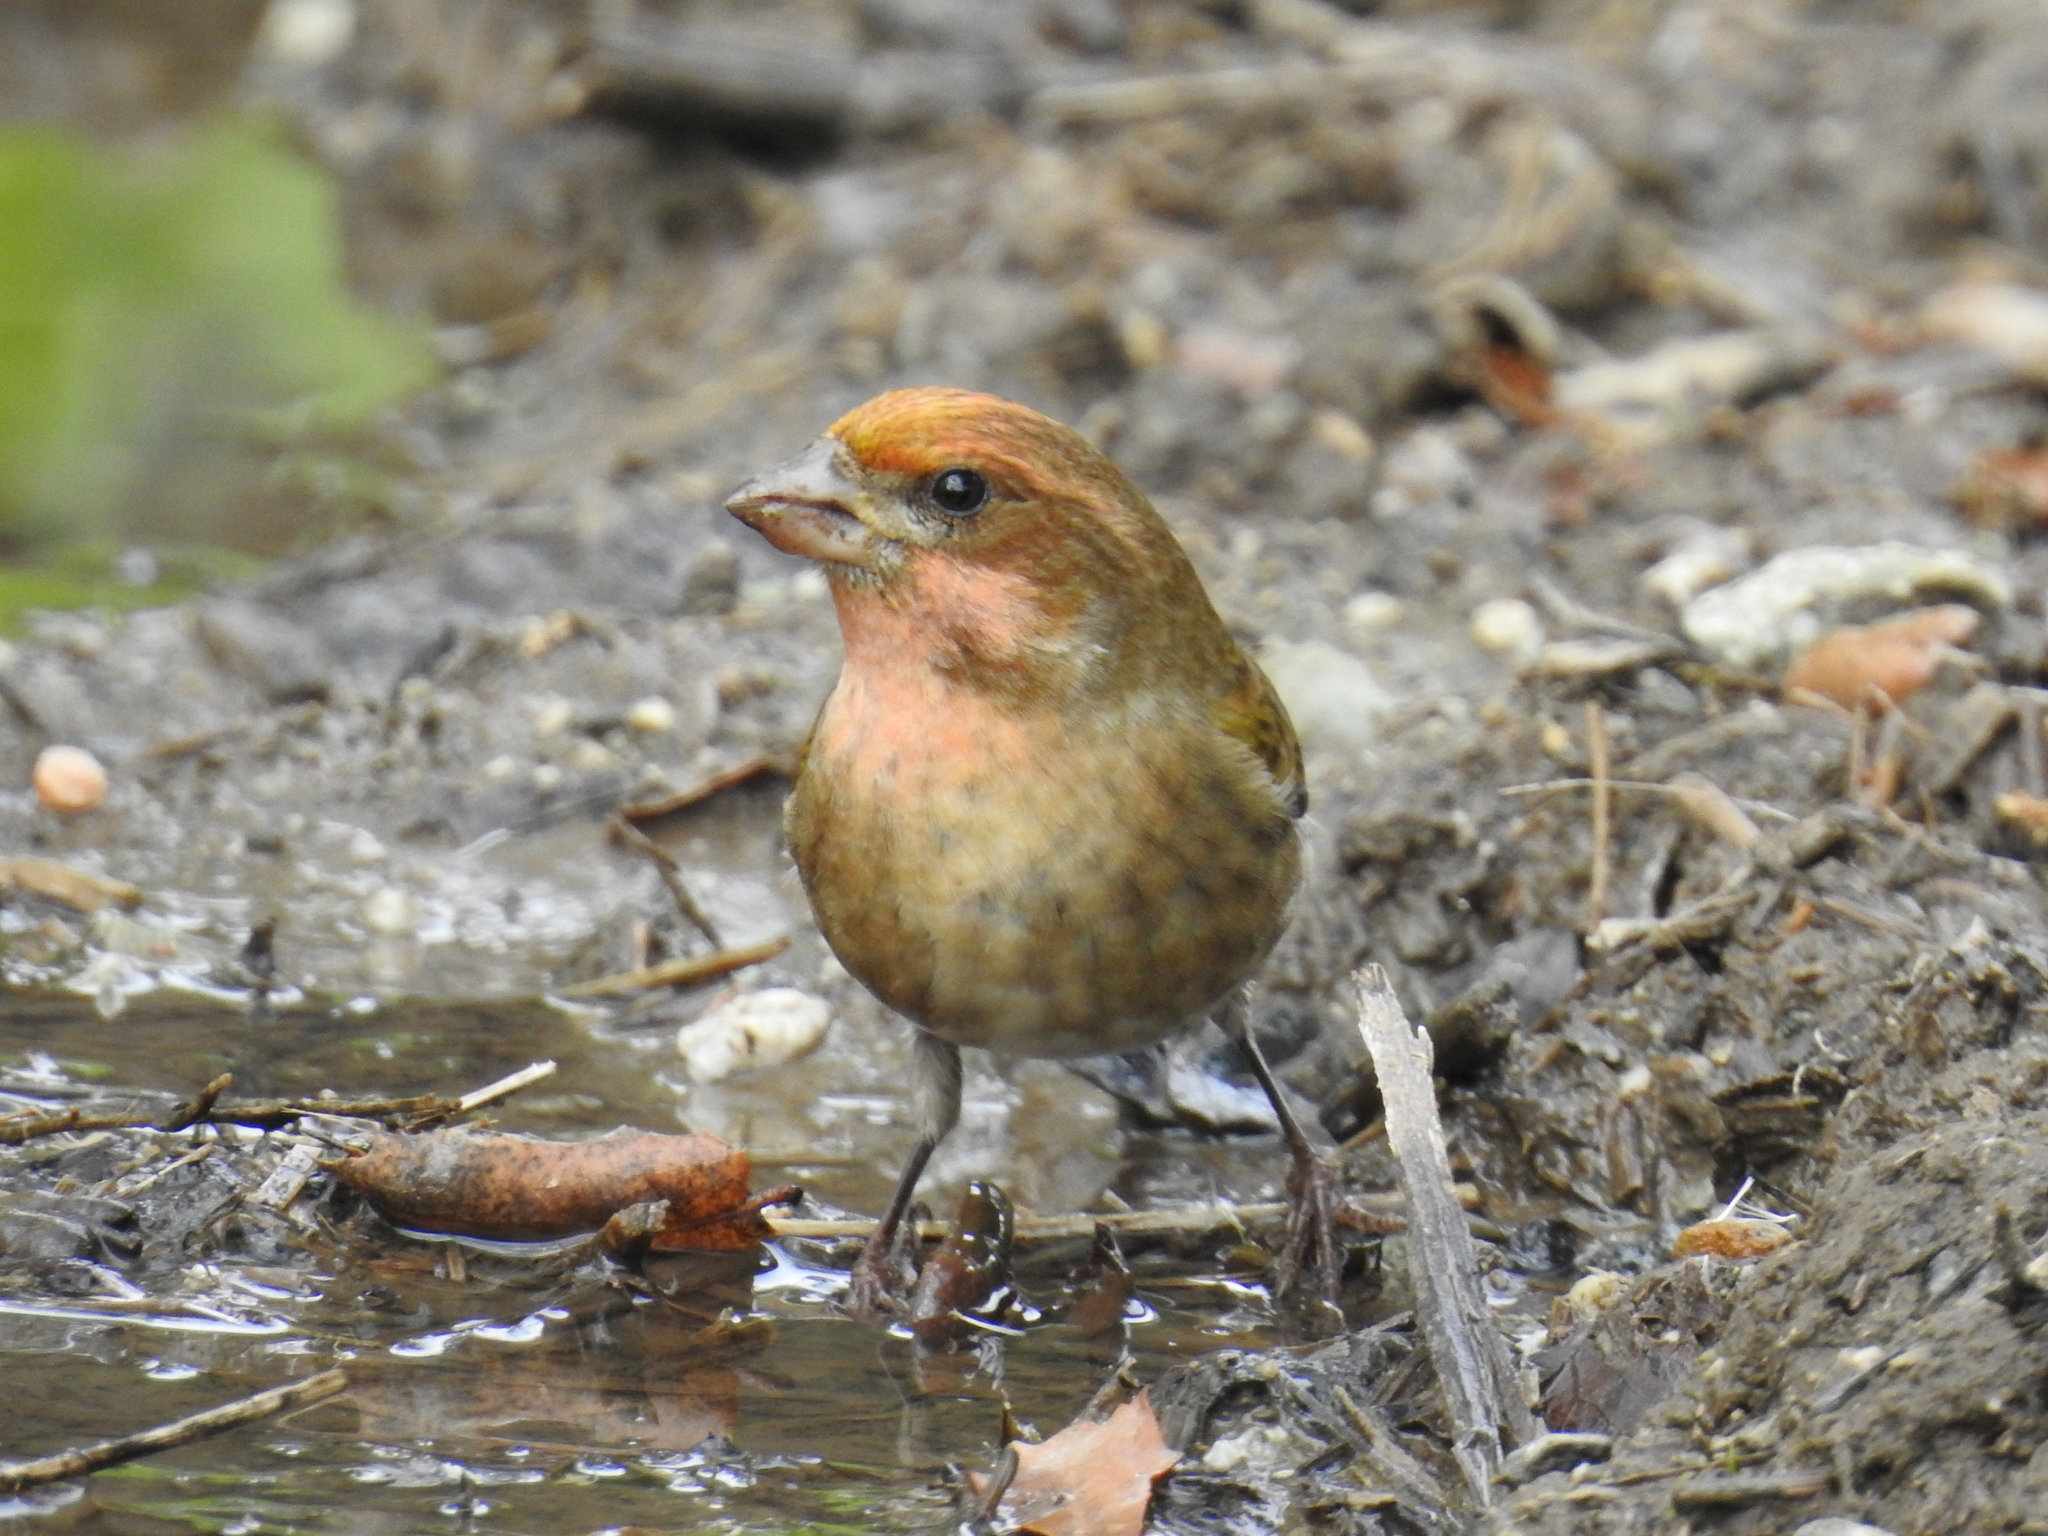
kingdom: Animalia
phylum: Chordata
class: Aves
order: Passeriformes
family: Fringillidae
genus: Haemorhous
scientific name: Haemorhous purpureus
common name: Purple finch
